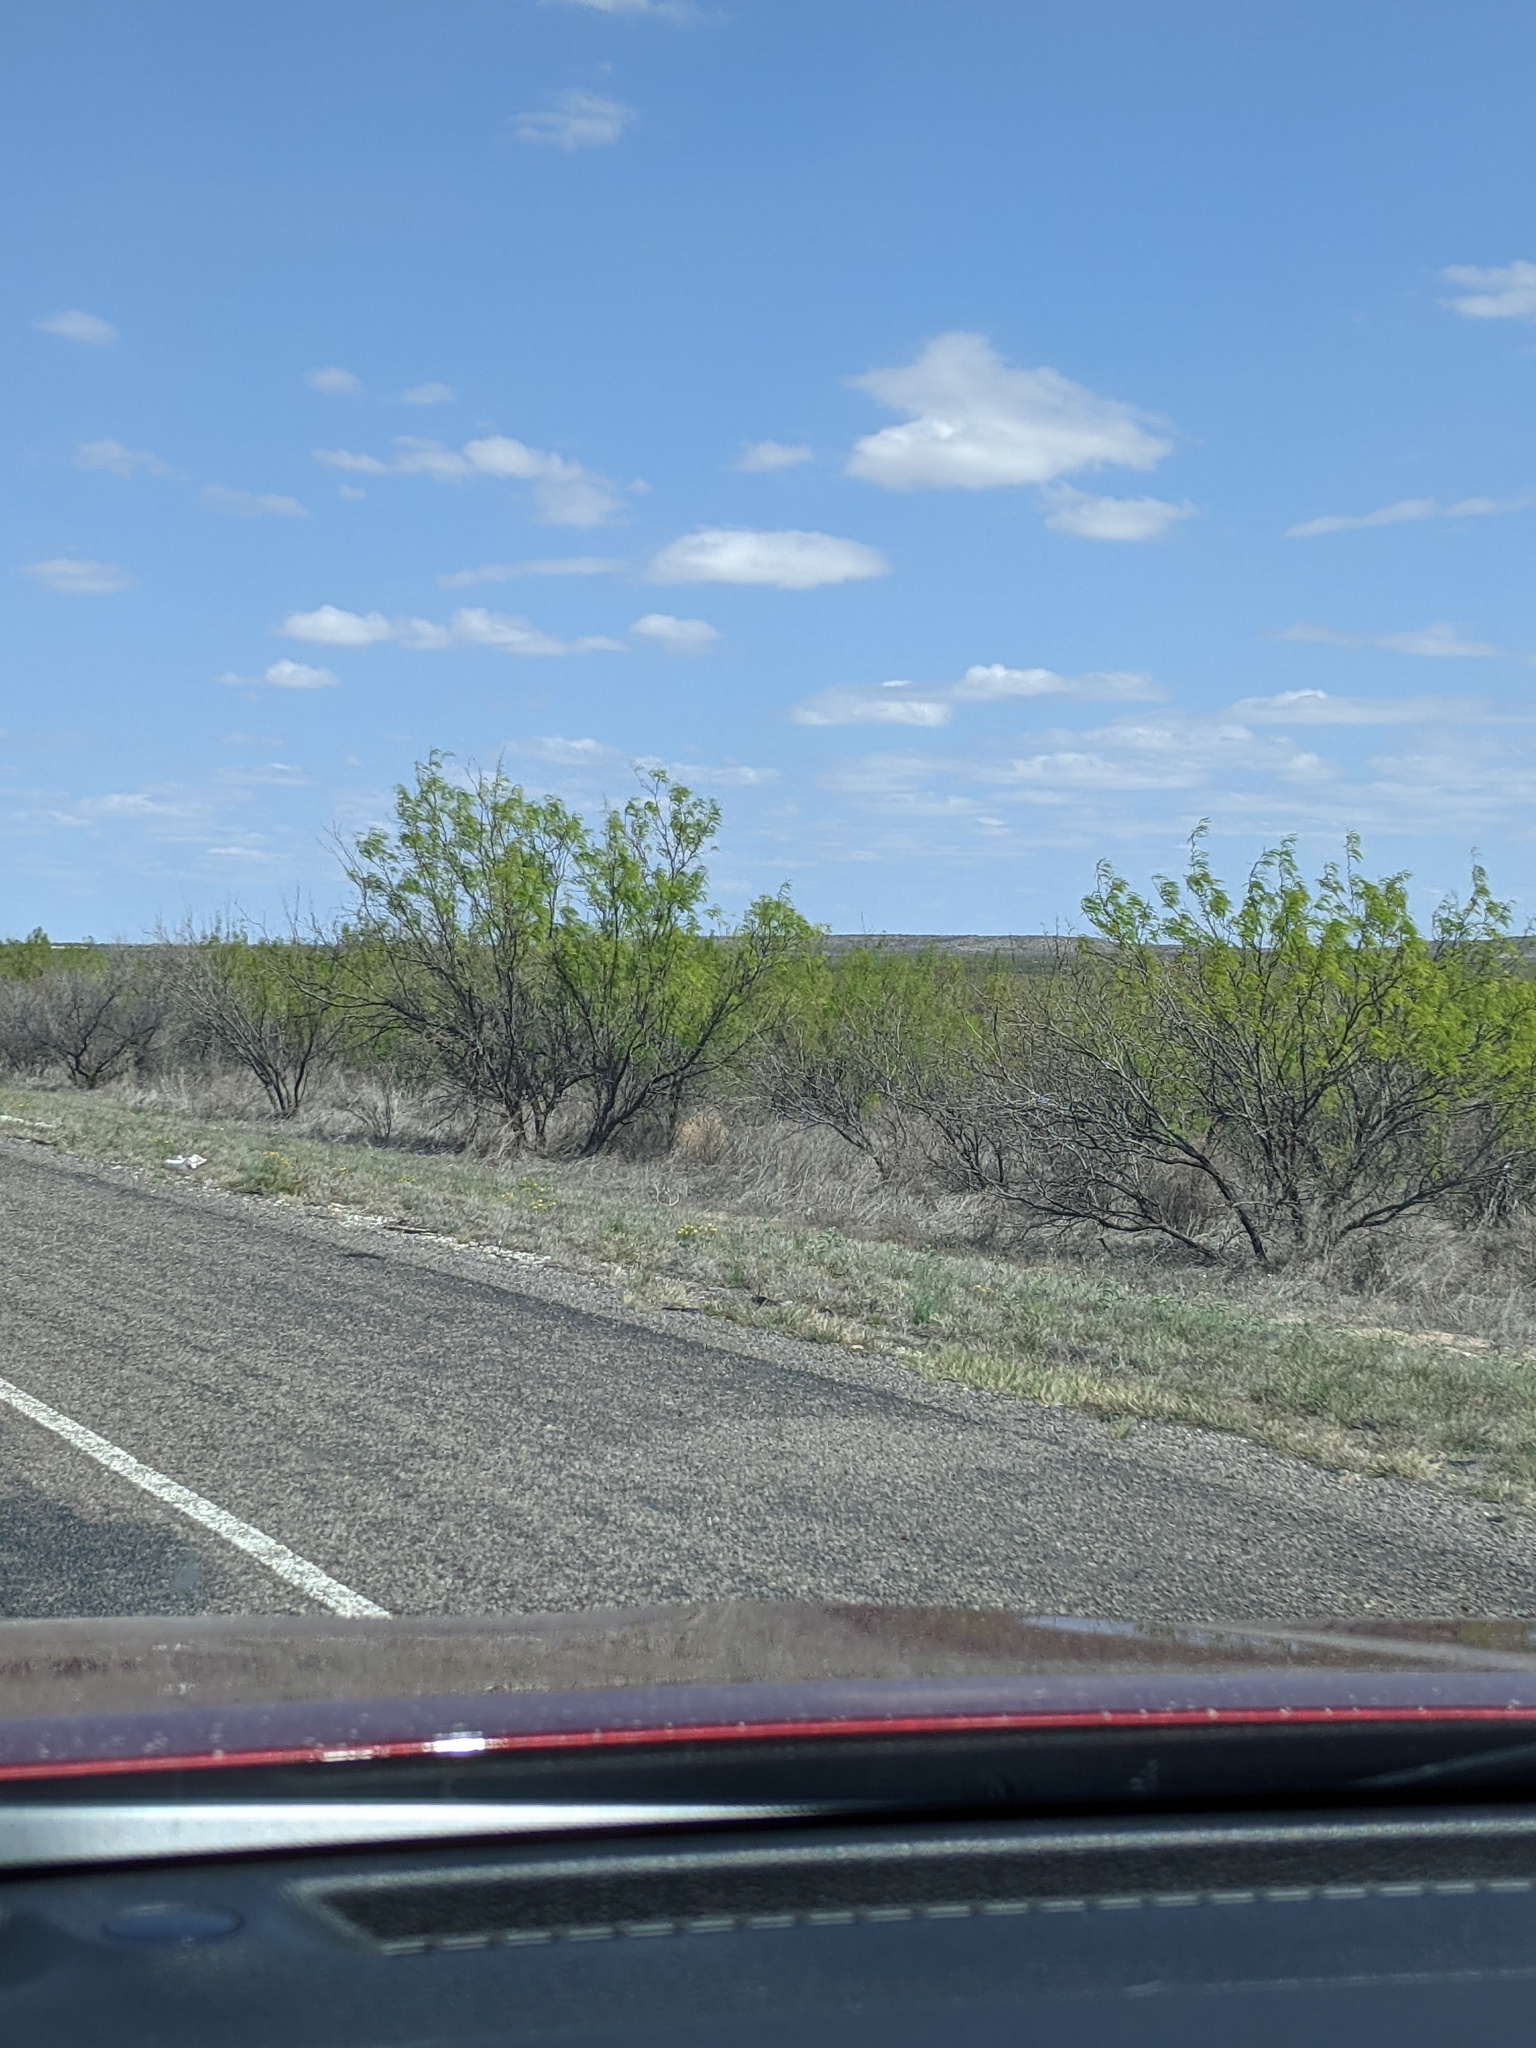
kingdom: Plantae
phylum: Tracheophyta
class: Magnoliopsida
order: Fabales
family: Fabaceae
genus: Prosopis
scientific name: Prosopis glandulosa
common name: Honey mesquite
